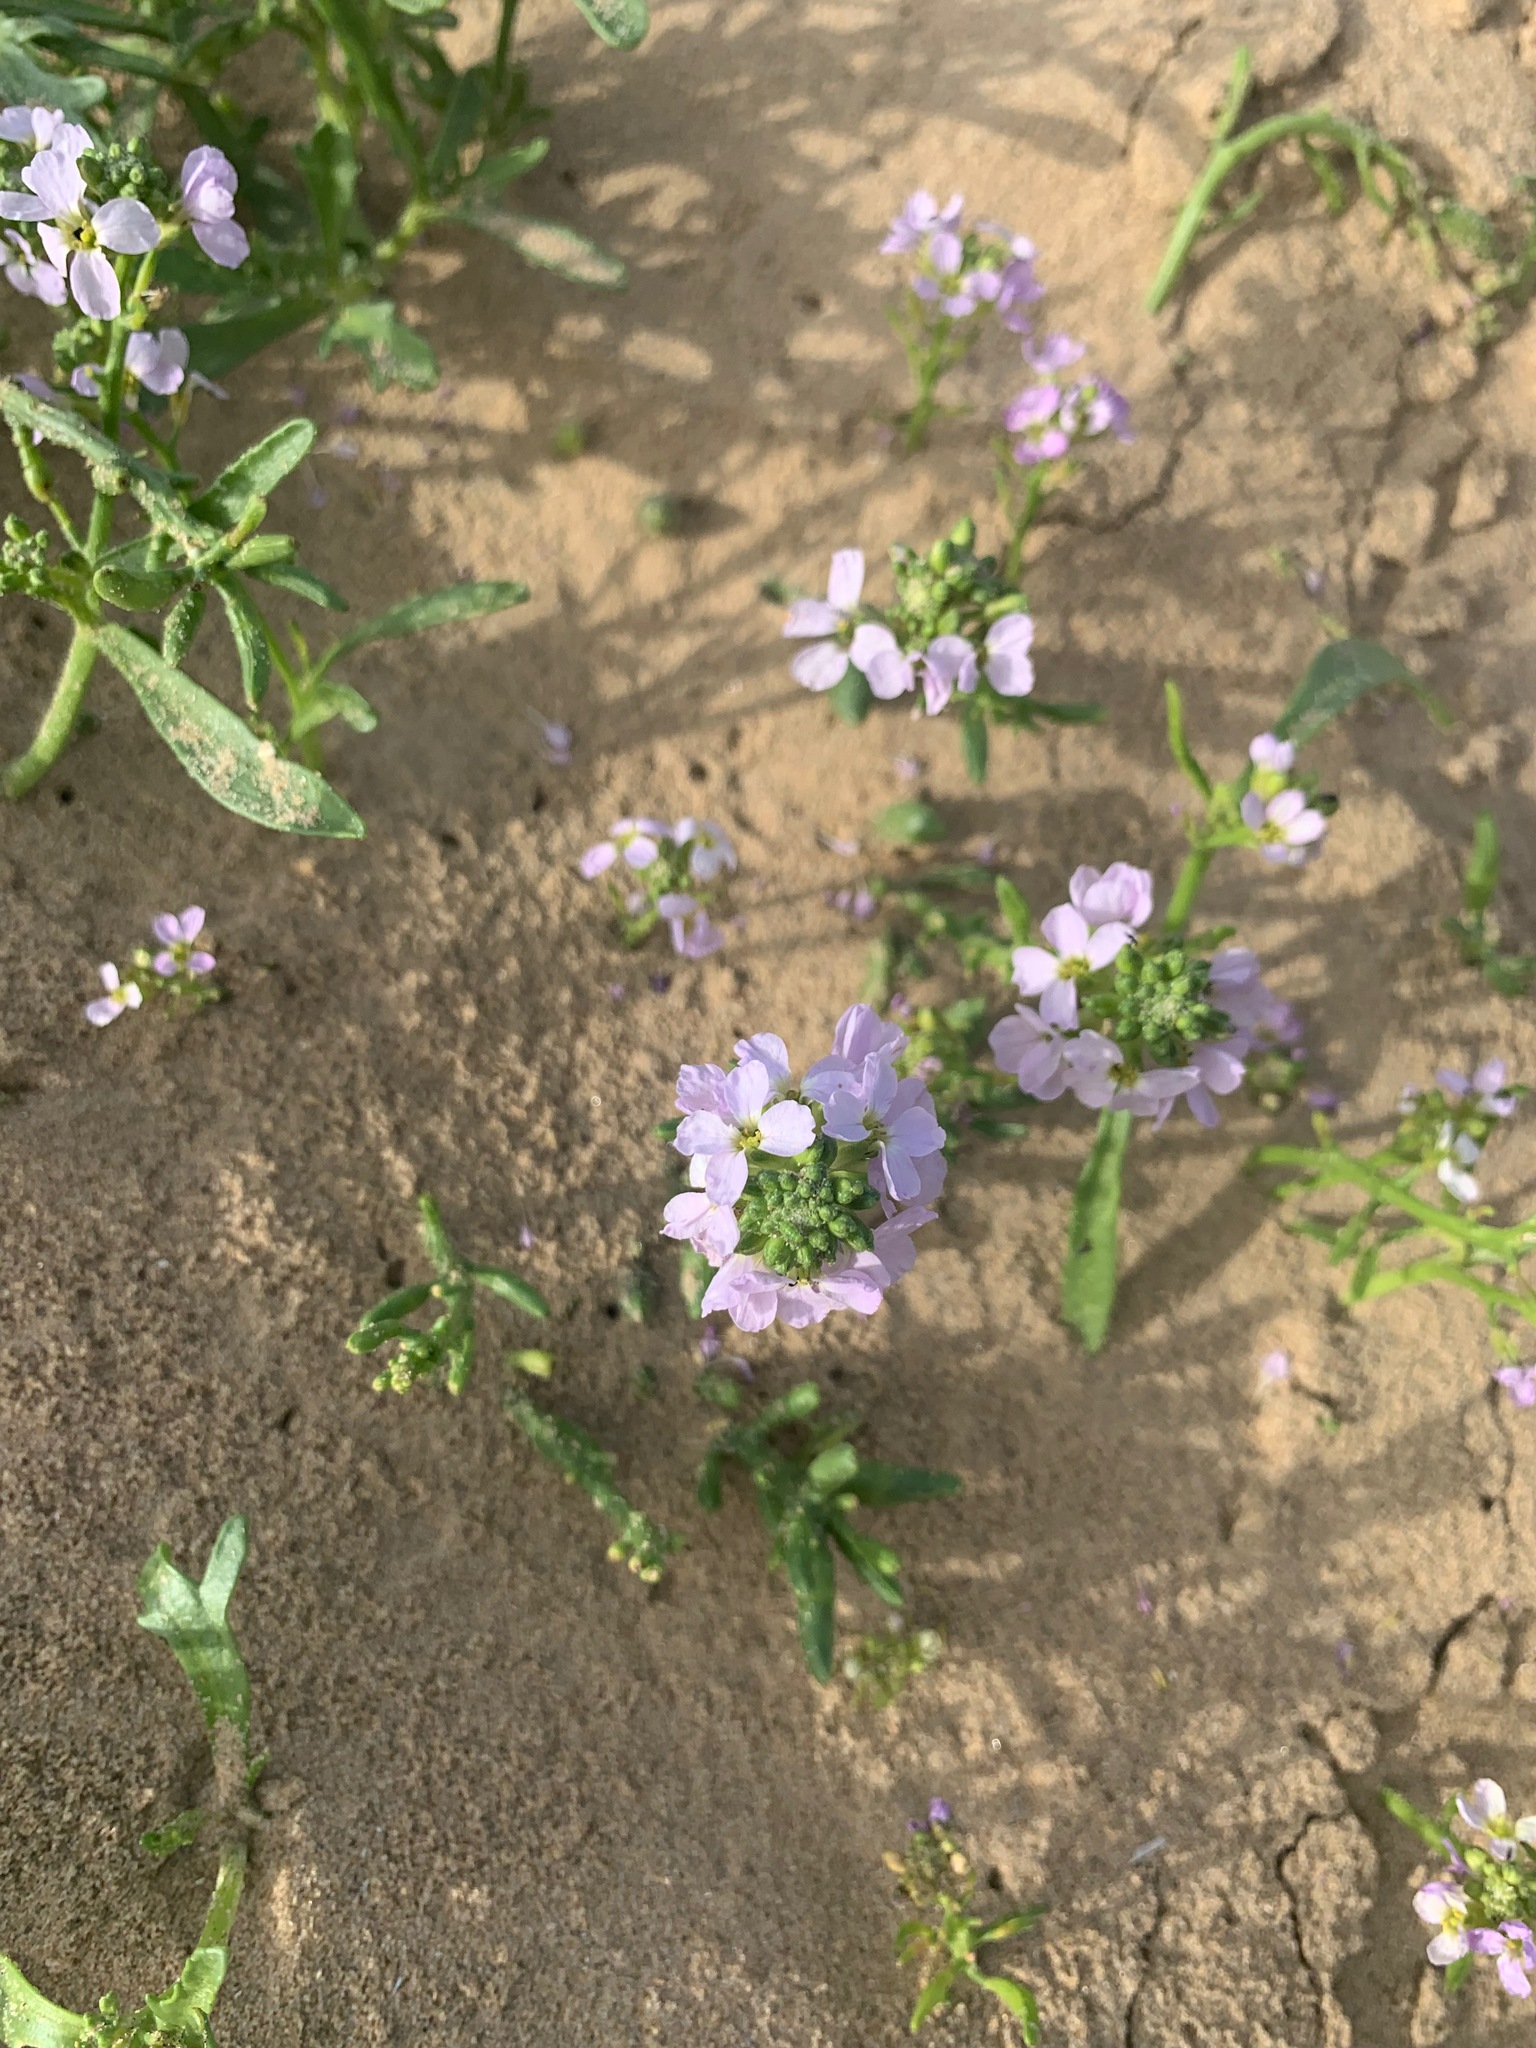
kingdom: Plantae
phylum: Tracheophyta
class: Magnoliopsida
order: Brassicales
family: Brassicaceae
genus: Cakile
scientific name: Cakile maritima
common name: Sea rocket
